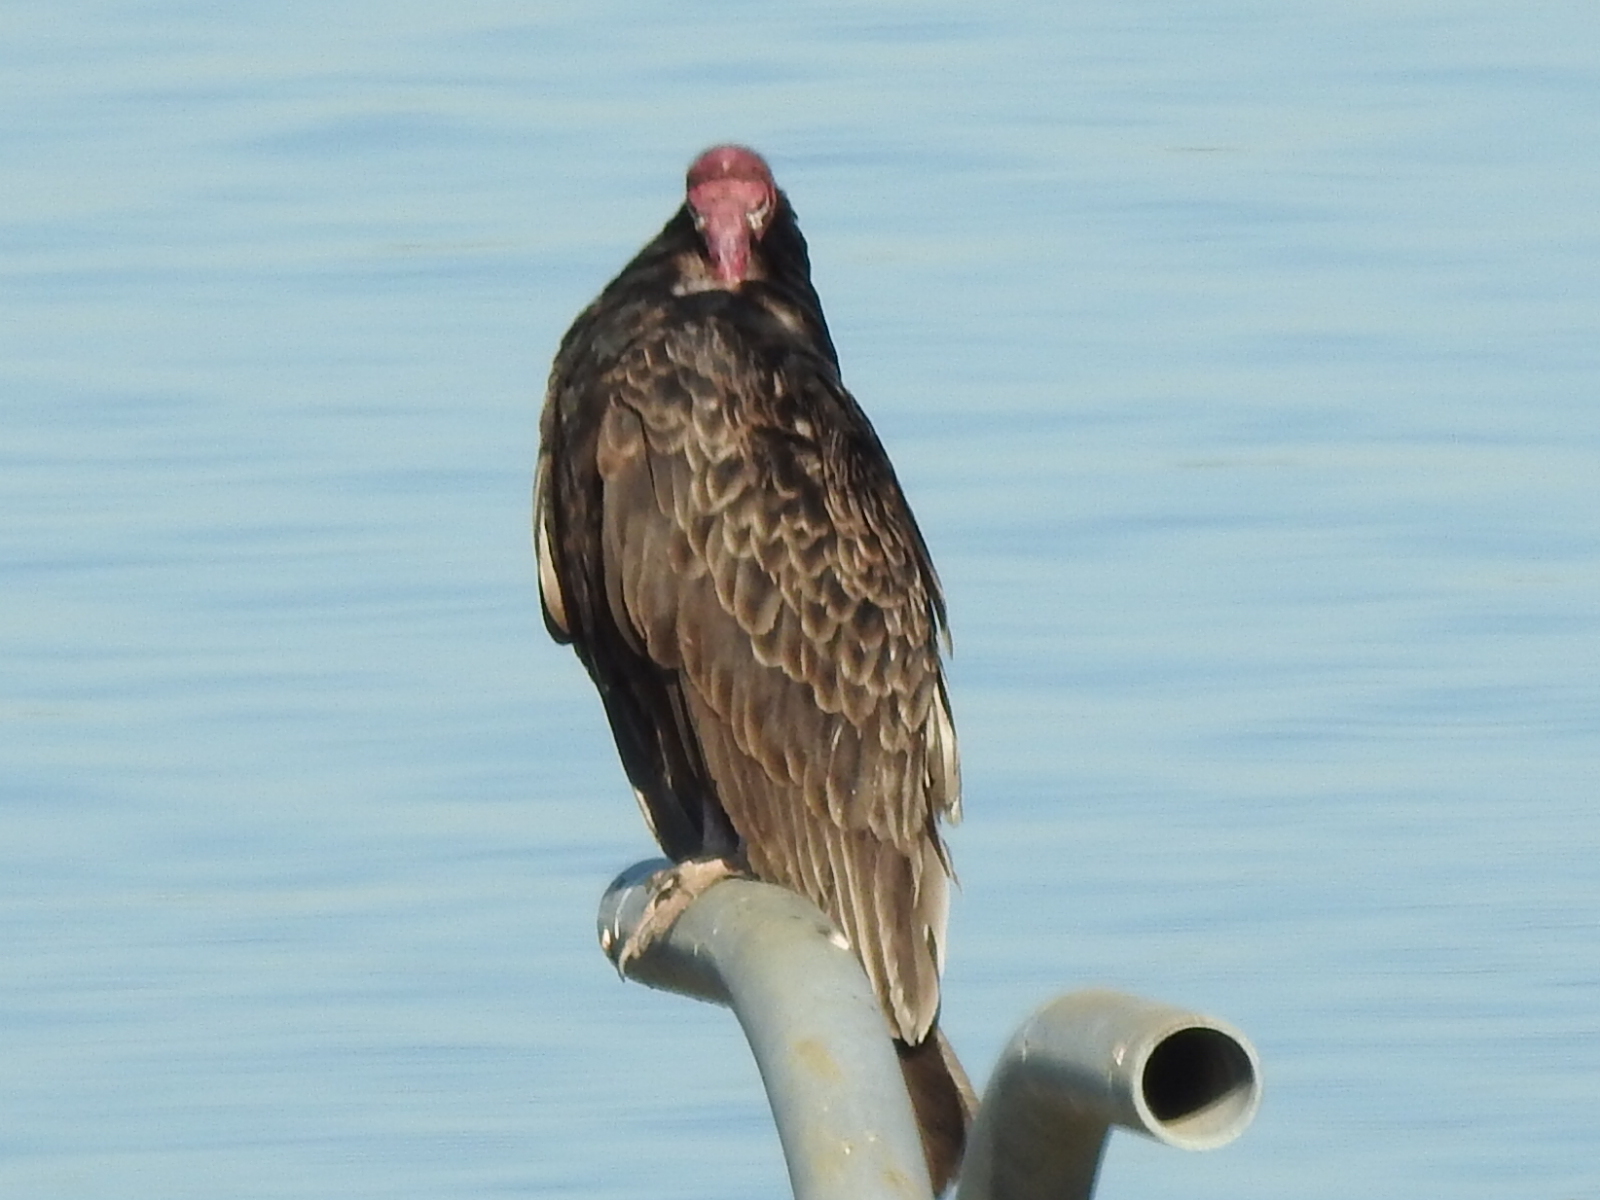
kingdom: Animalia
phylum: Chordata
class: Aves
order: Accipitriformes
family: Cathartidae
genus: Cathartes
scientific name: Cathartes aura
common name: Turkey vulture
